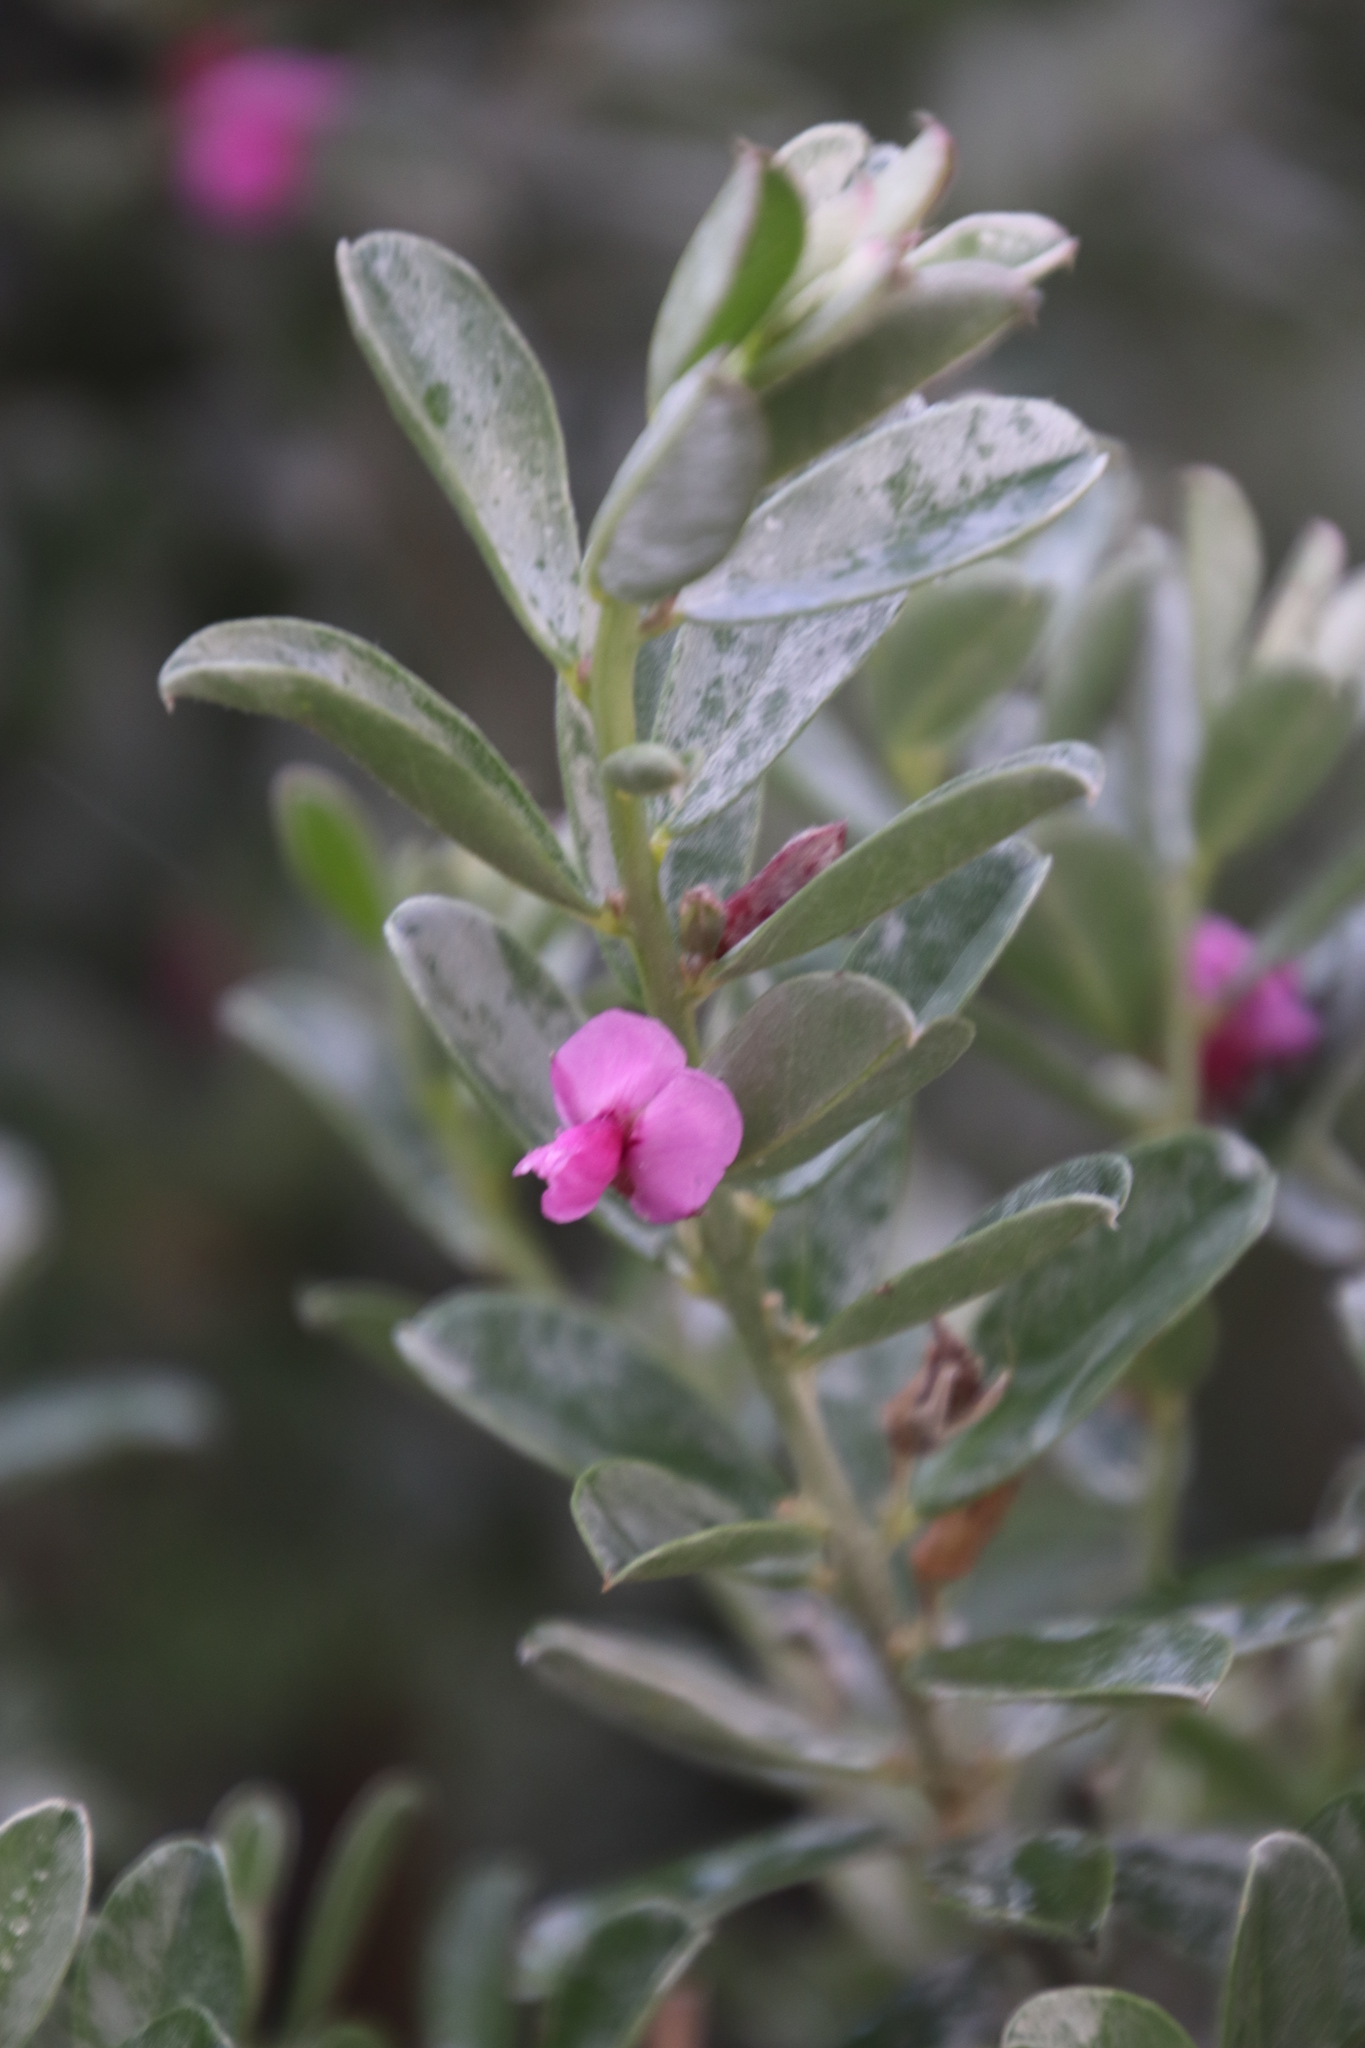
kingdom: Plantae
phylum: Tracheophyta
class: Magnoliopsida
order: Fabales
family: Fabaceae
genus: Podalyria
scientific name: Podalyria sericea
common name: Silver podalyria
